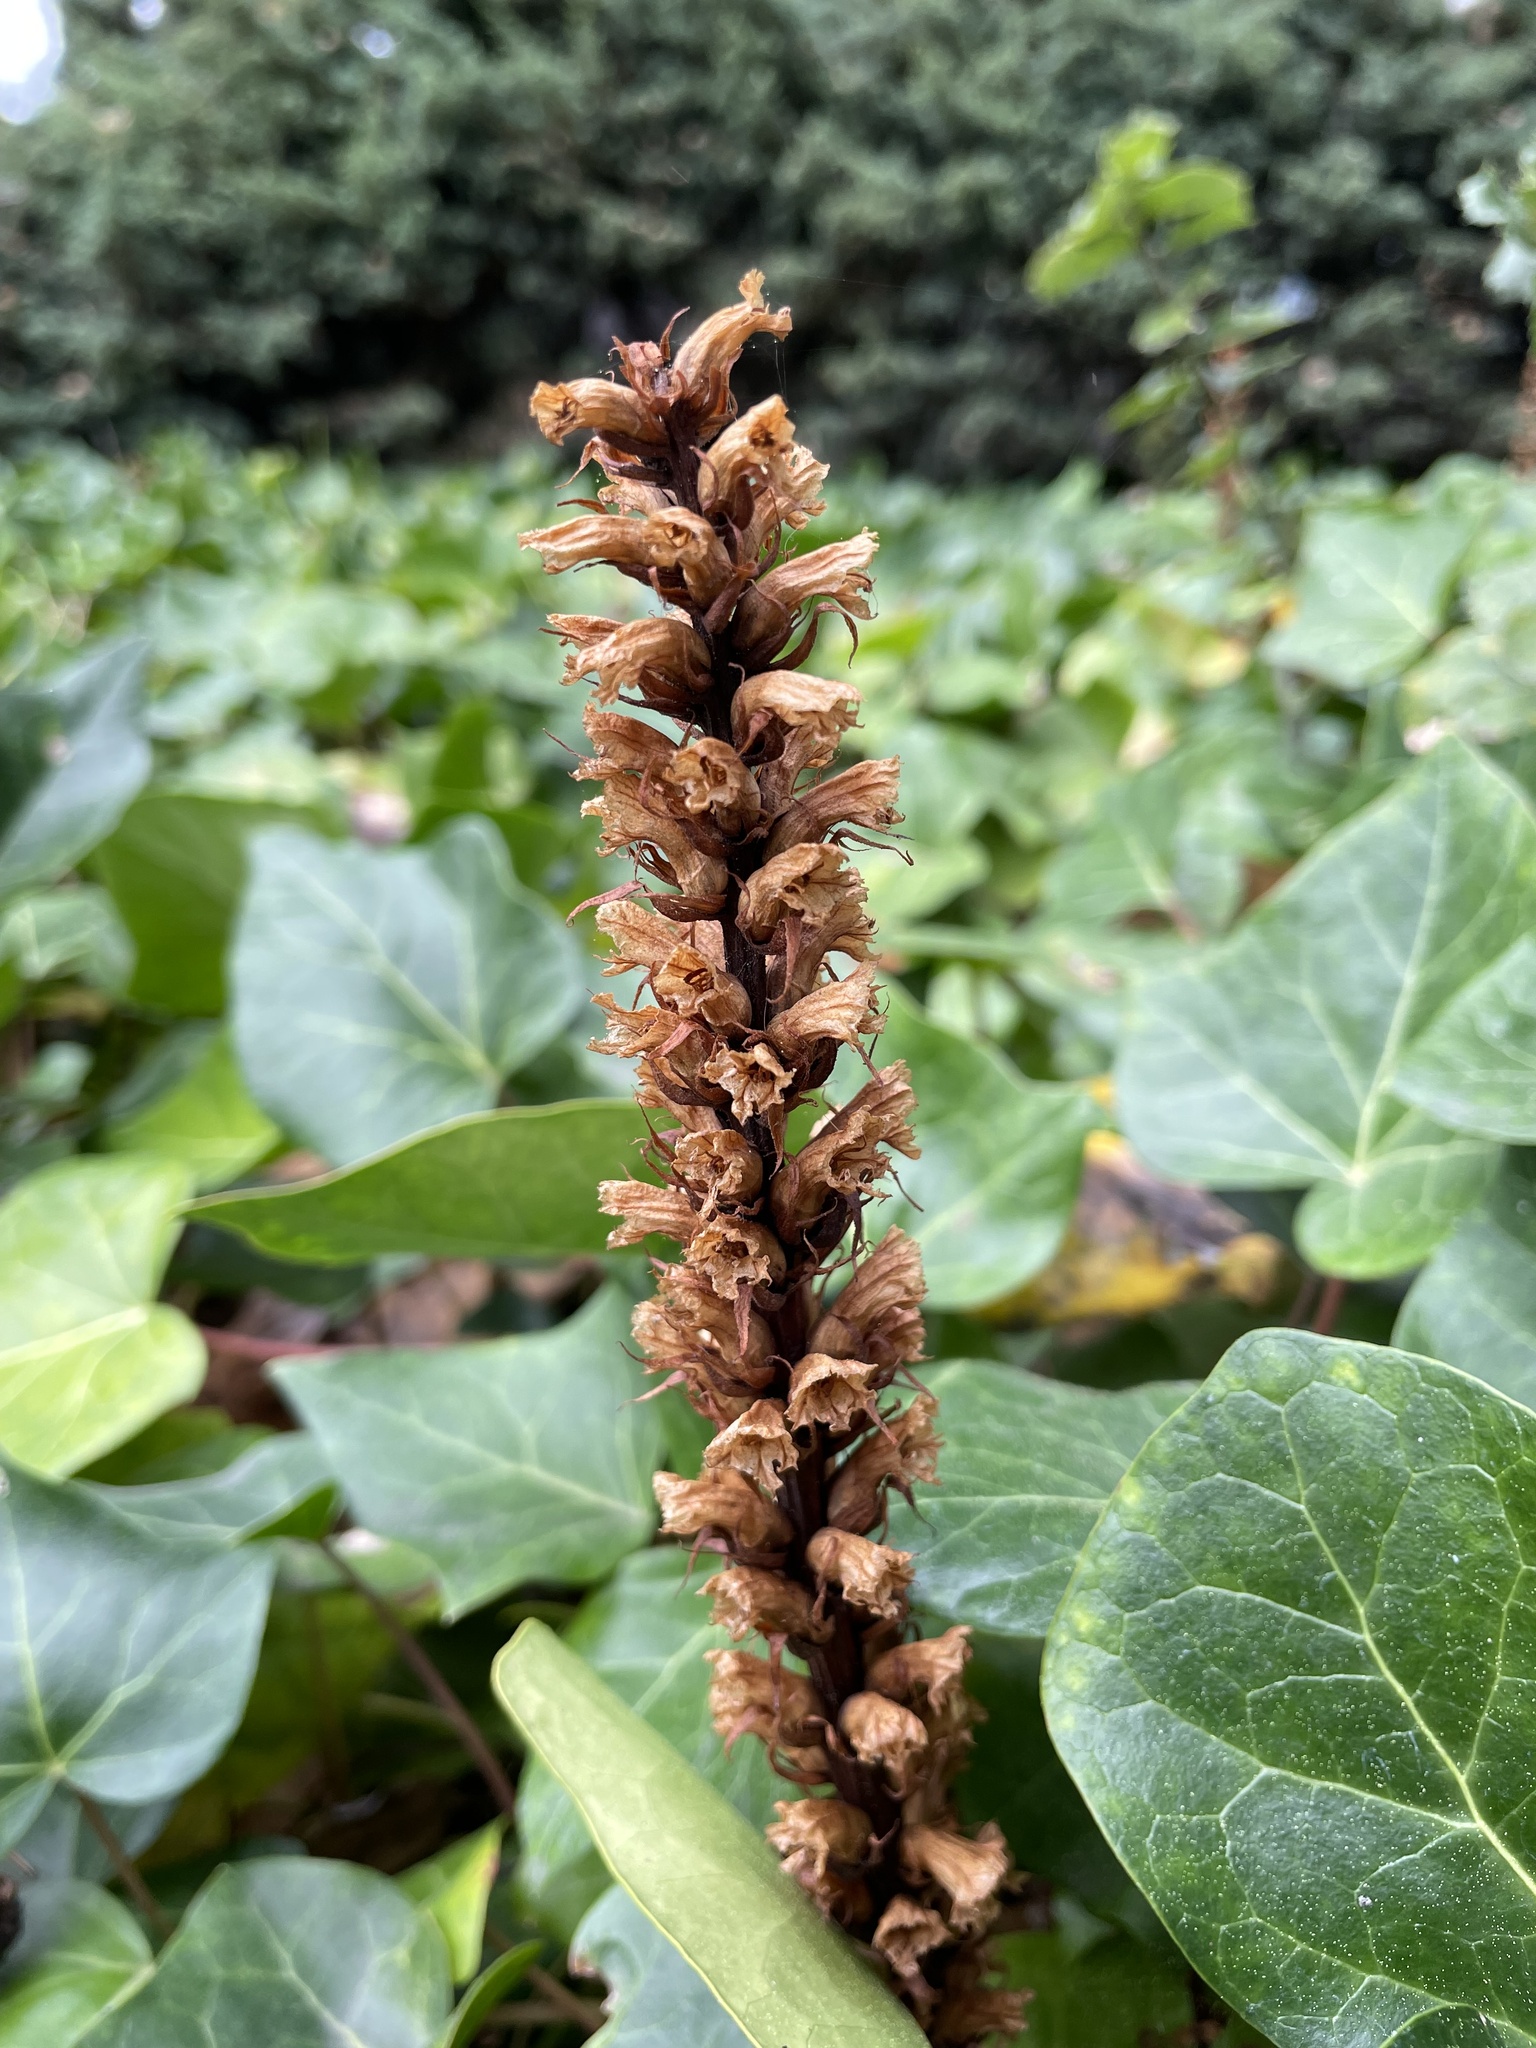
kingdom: Plantae
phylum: Tracheophyta
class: Magnoliopsida
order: Lamiales
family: Orobanchaceae
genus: Orobanche
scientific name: Orobanche hederae
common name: Ivy broomrape
